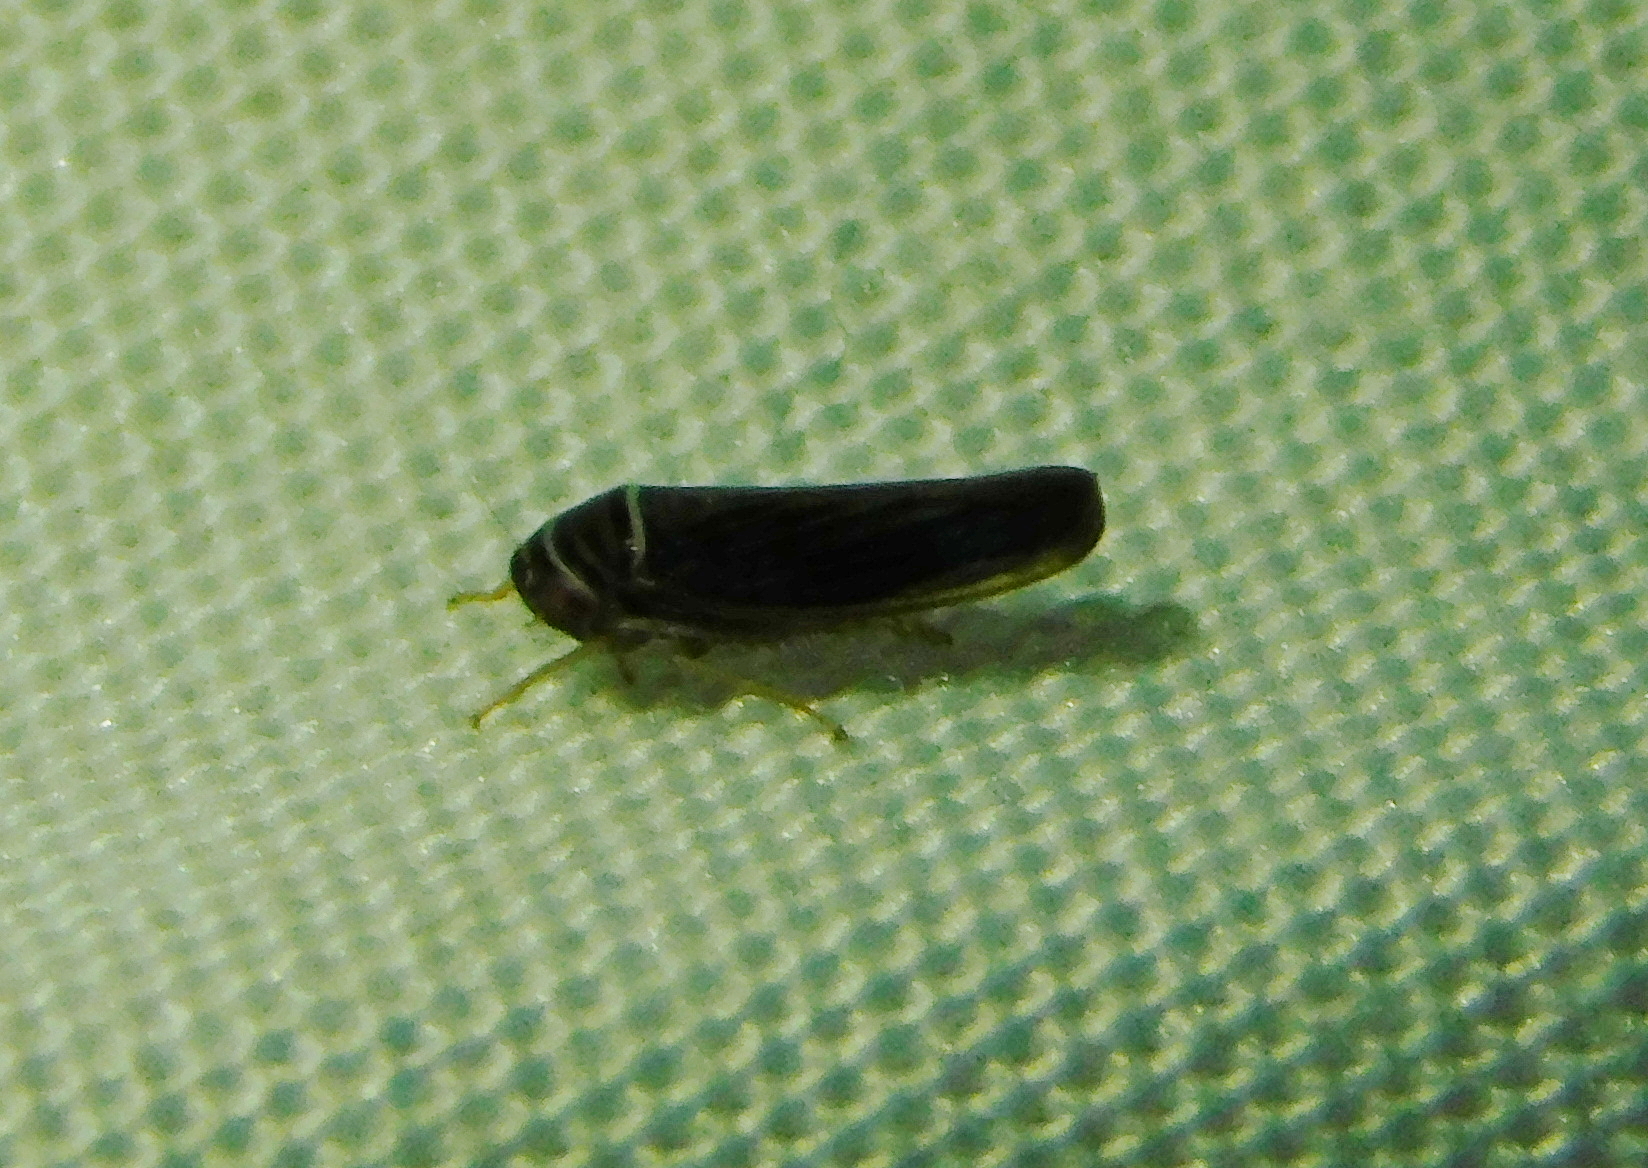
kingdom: Animalia
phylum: Arthropoda
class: Insecta
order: Hemiptera
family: Cicadellidae
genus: Tylozygus
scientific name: Tylozygus bifidus
